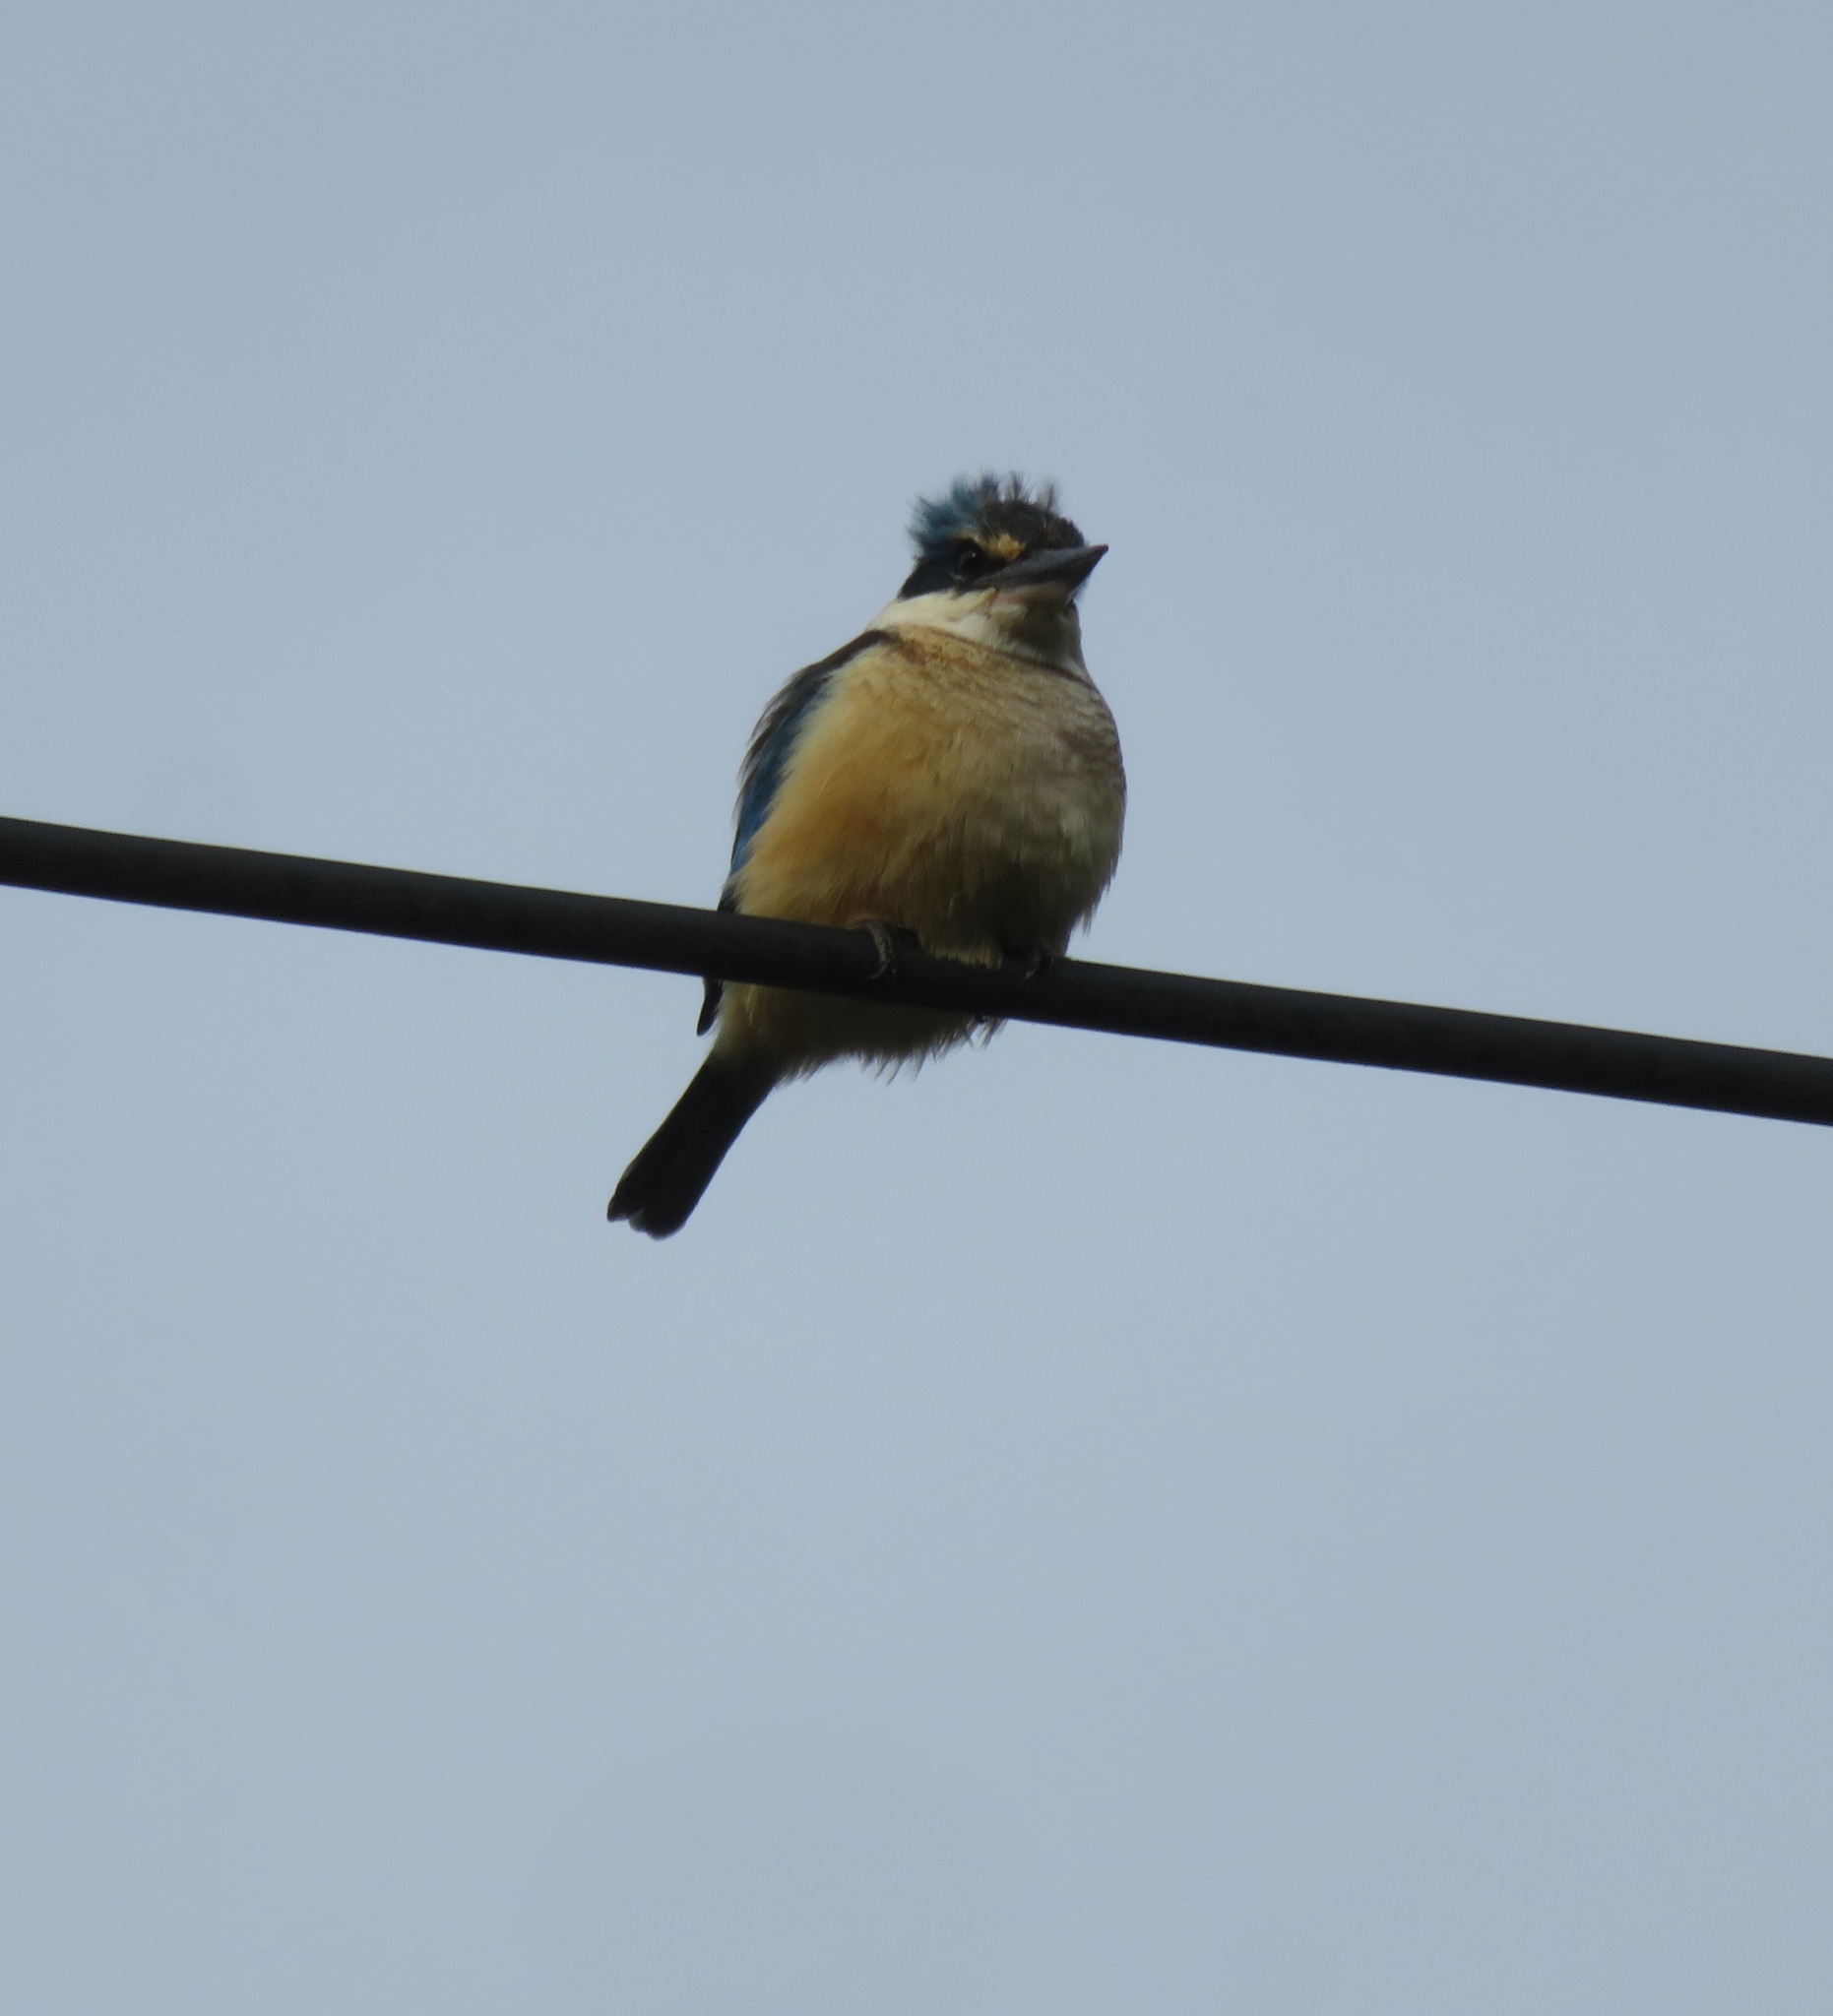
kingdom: Animalia
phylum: Chordata
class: Aves
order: Coraciiformes
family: Alcedinidae
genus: Todiramphus
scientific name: Todiramphus sanctus
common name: Sacred kingfisher
